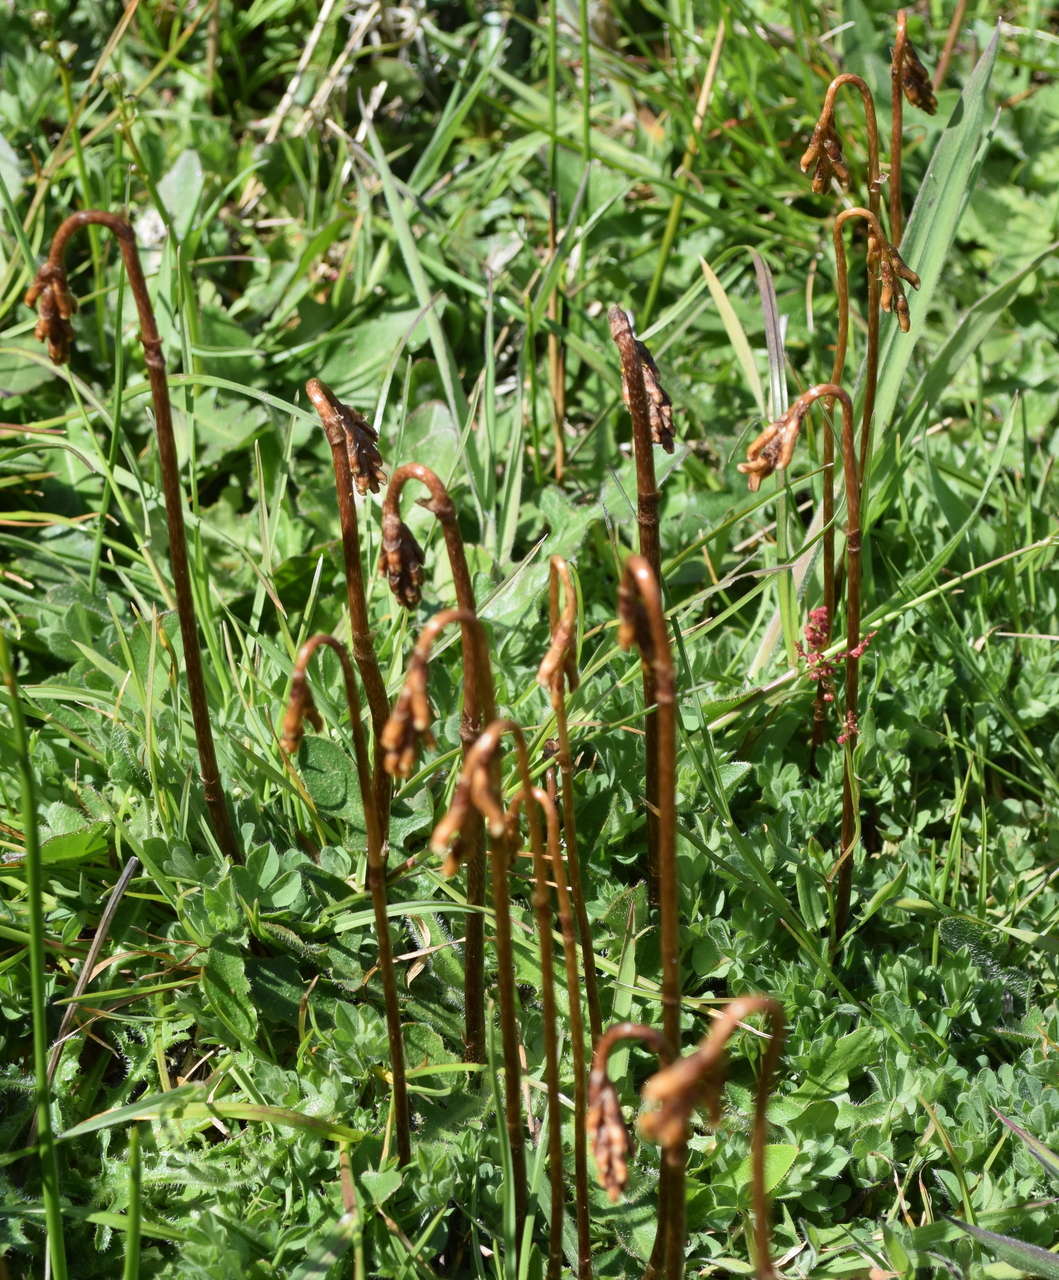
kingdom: Plantae
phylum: Tracheophyta
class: Liliopsida
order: Asparagales
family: Orchidaceae
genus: Gastrodia
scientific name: Gastrodia sesamoides
